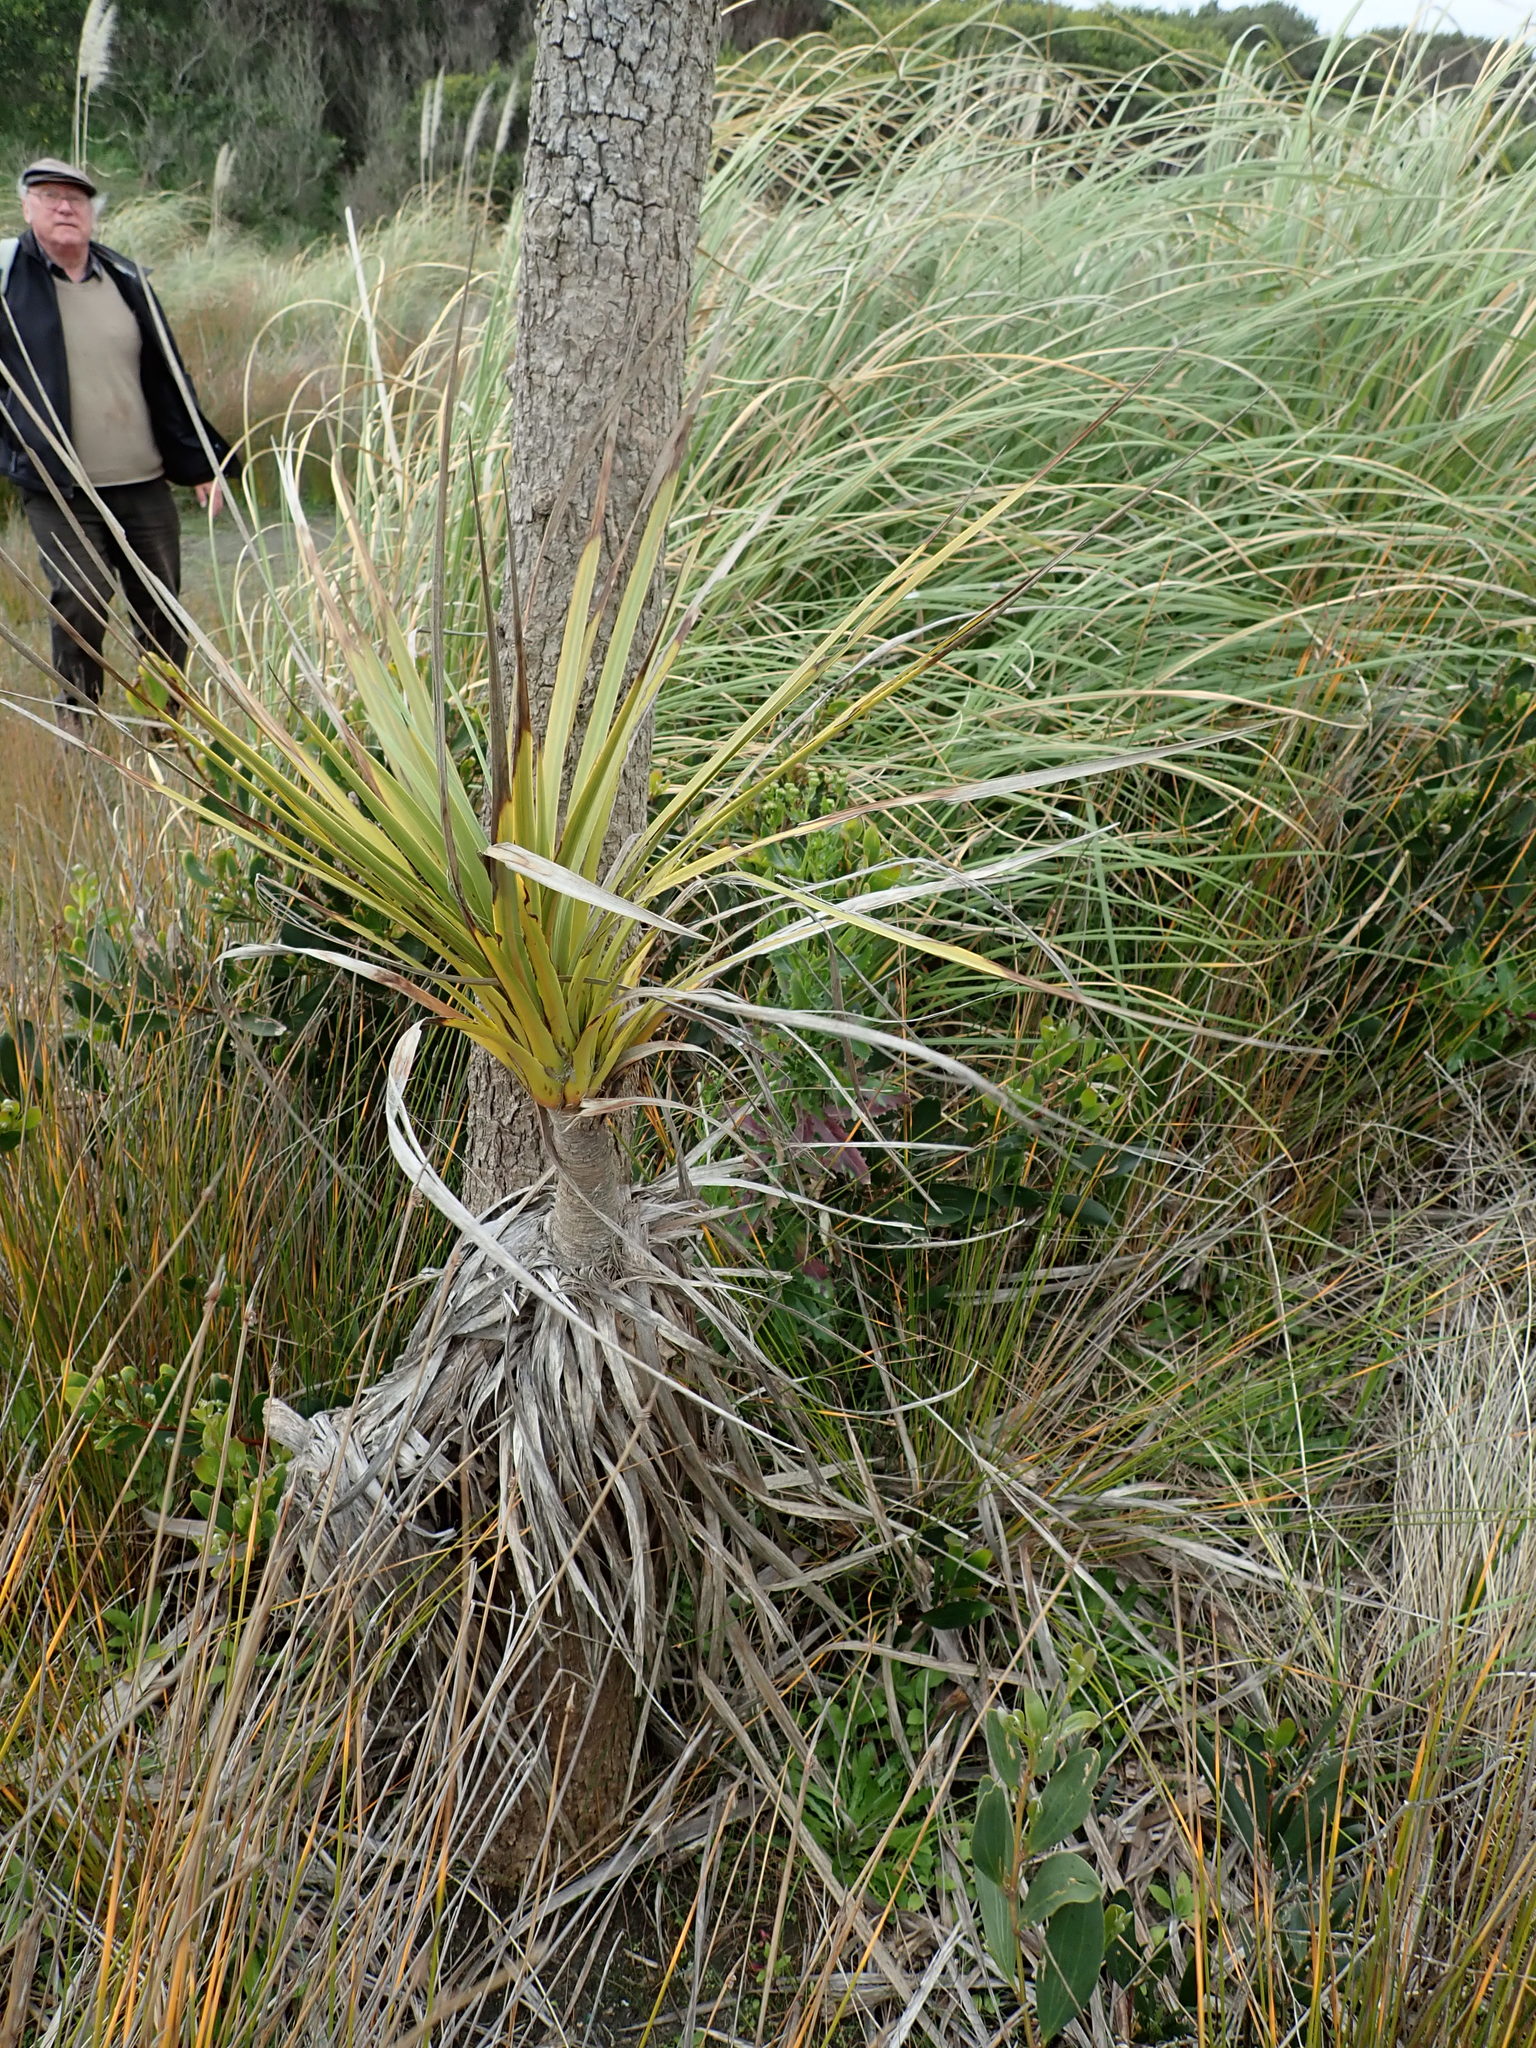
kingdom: Plantae
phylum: Tracheophyta
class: Liliopsida
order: Asparagales
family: Asparagaceae
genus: Cordyline
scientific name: Cordyline australis
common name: Cabbage-palm
